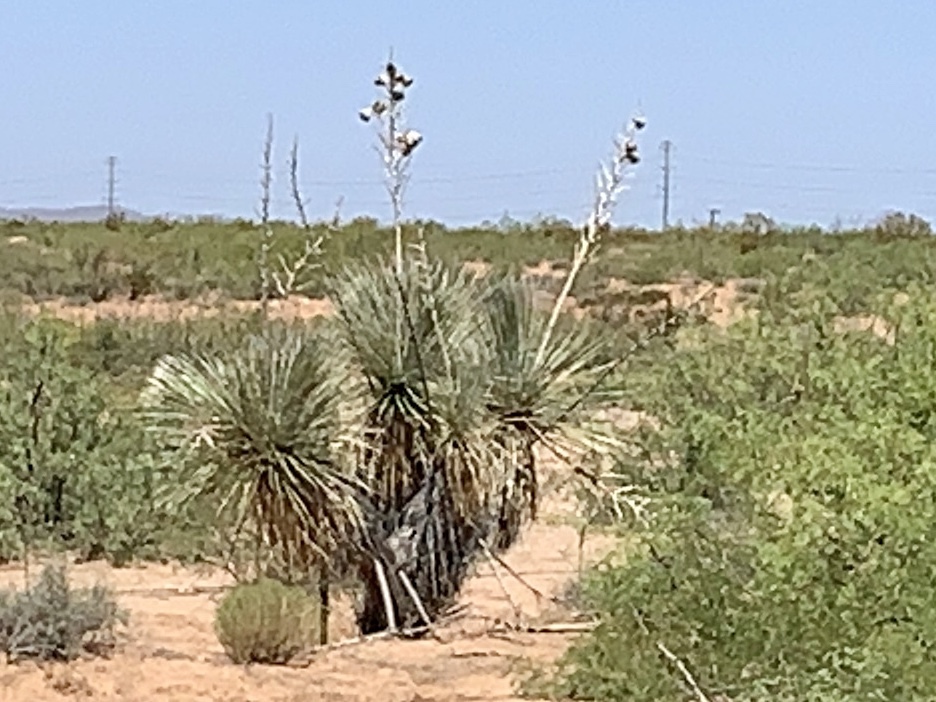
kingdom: Plantae
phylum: Tracheophyta
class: Liliopsida
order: Asparagales
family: Asparagaceae
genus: Yucca
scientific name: Yucca elata
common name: Palmella
